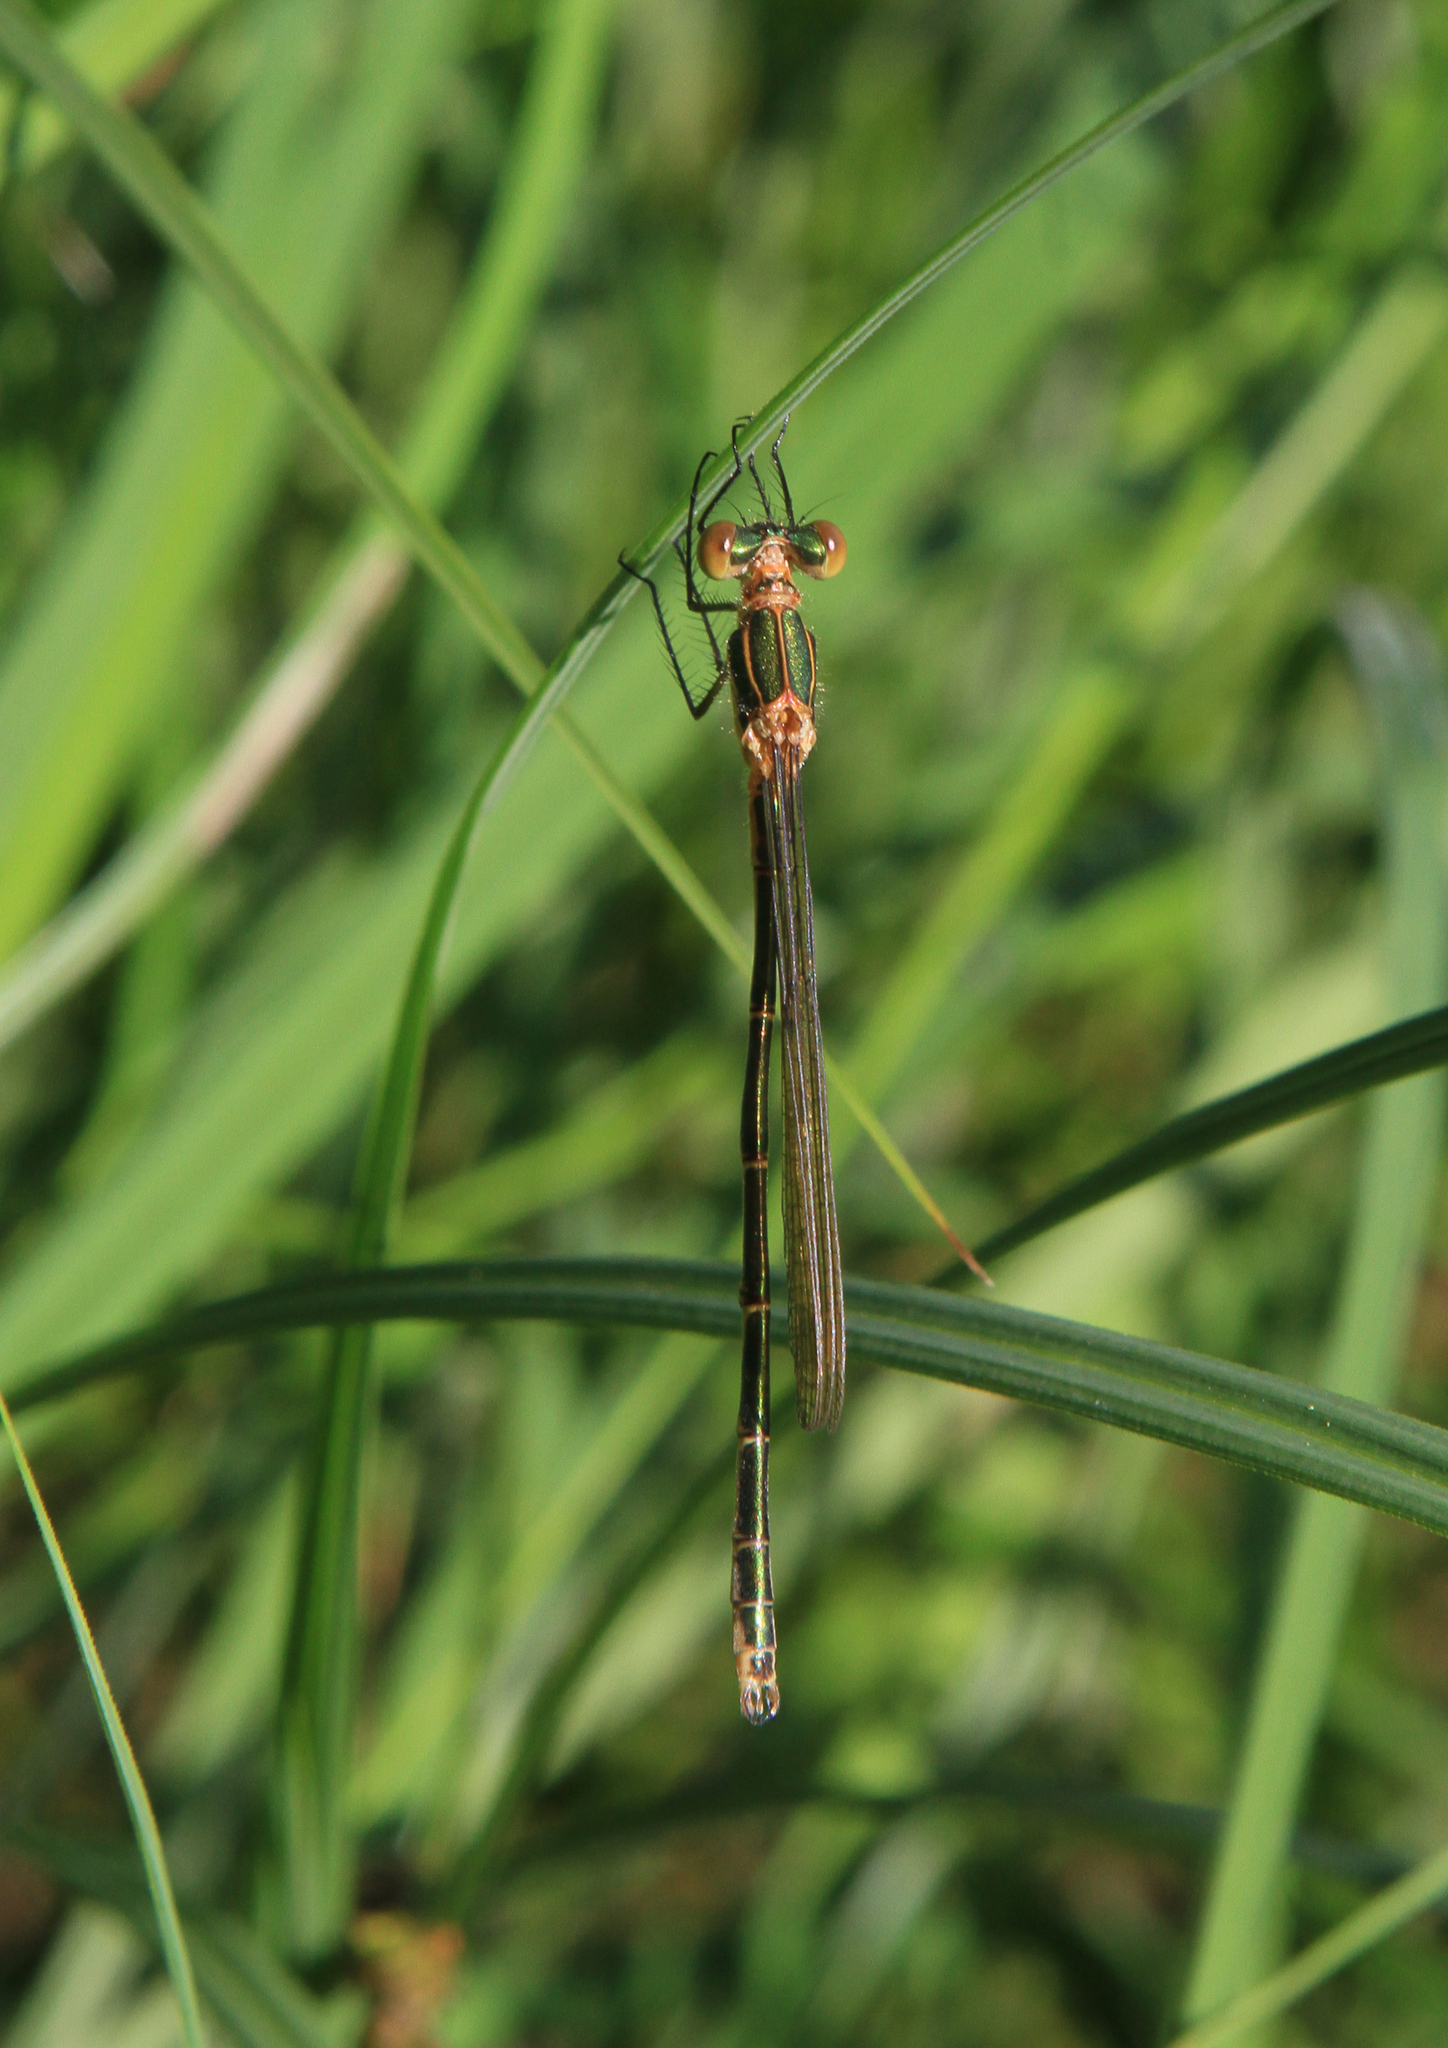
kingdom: Animalia
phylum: Arthropoda
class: Insecta
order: Odonata
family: Lestidae
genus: Lestes
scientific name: Lestes sponsa
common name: Common spreadwing
